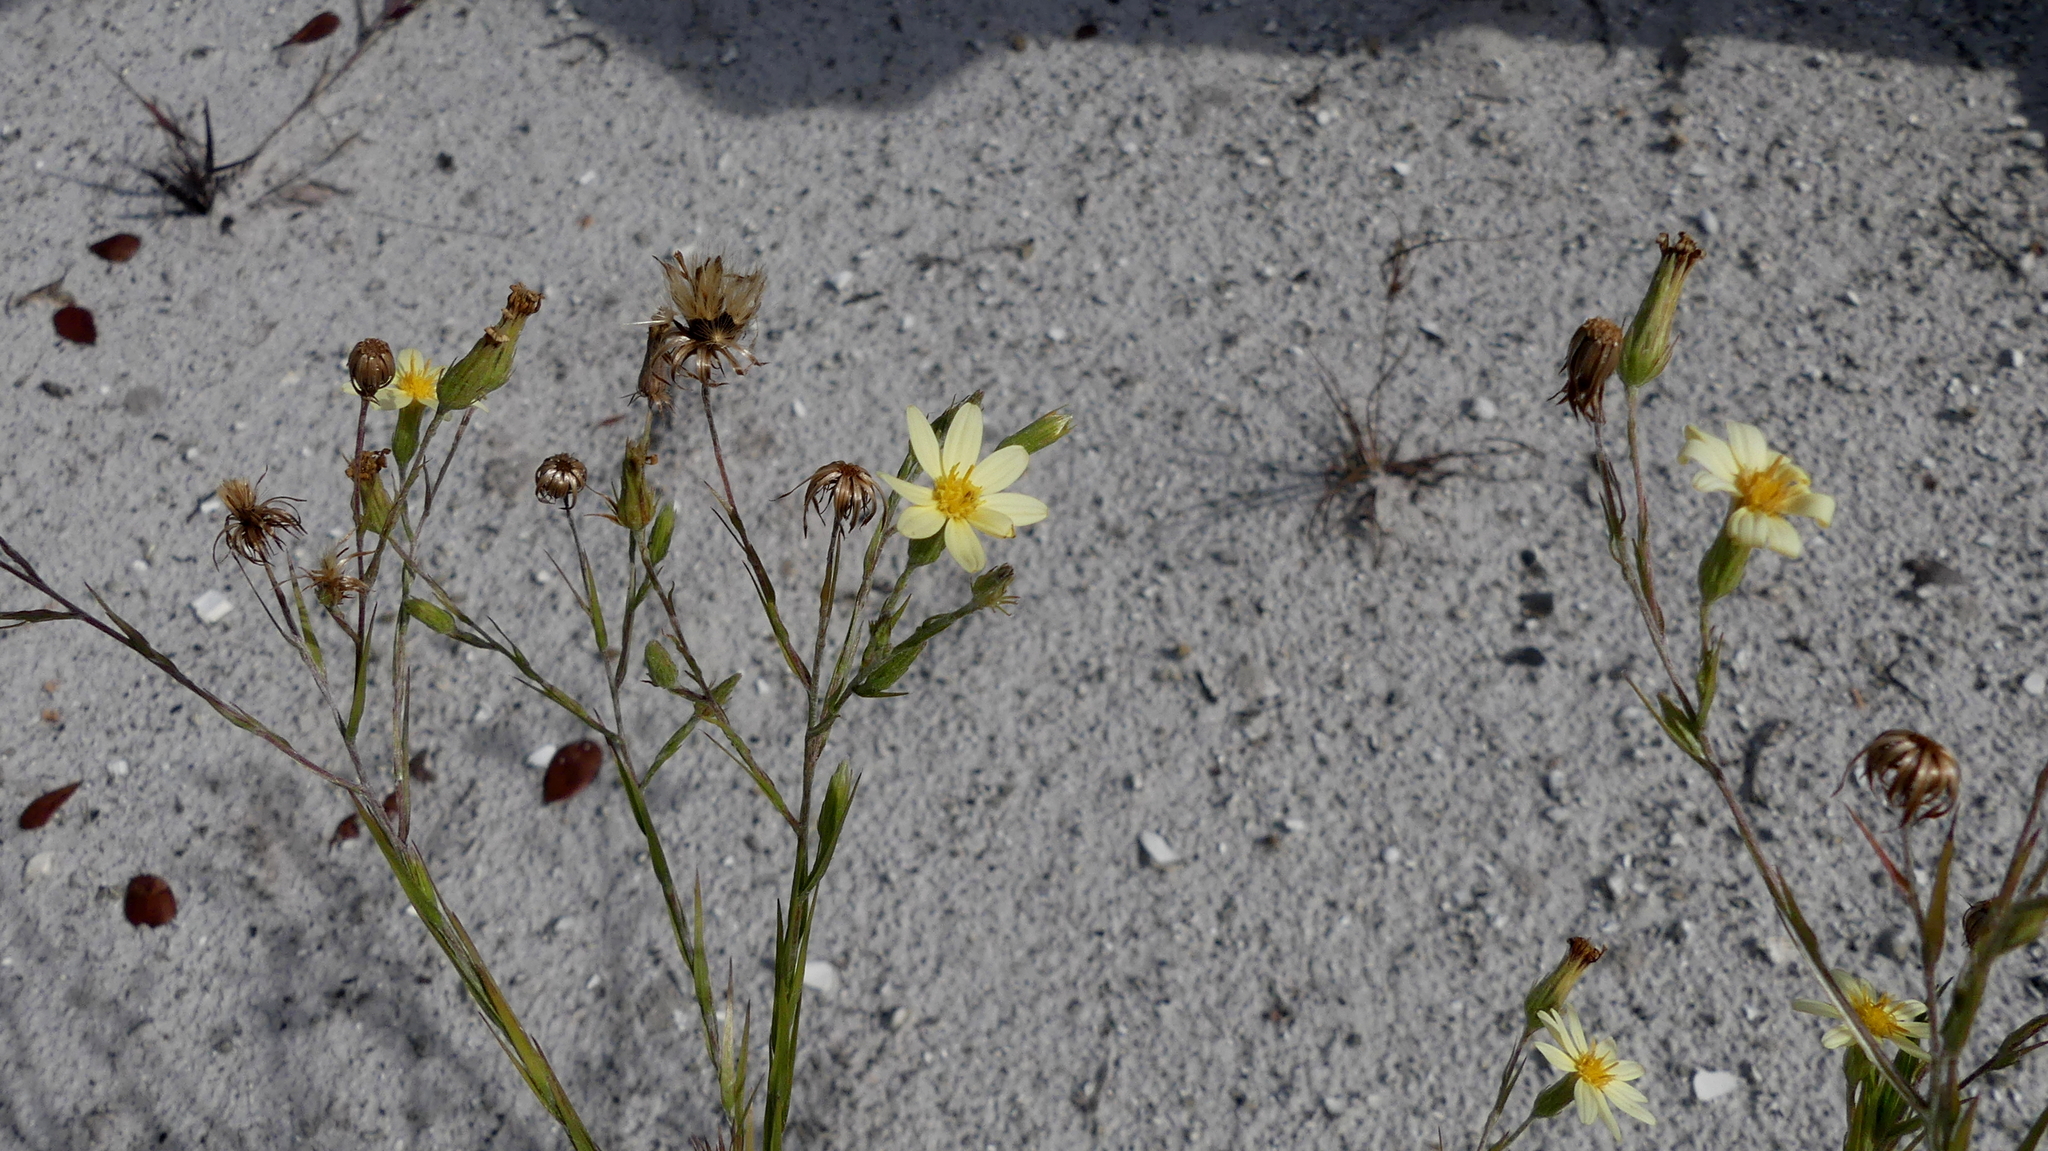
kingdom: Plantae
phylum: Tracheophyta
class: Magnoliopsida
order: Asterales
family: Asteraceae
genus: Pityopsis
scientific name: Pityopsis graminifolia
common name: Grass-leaf golden-aster
